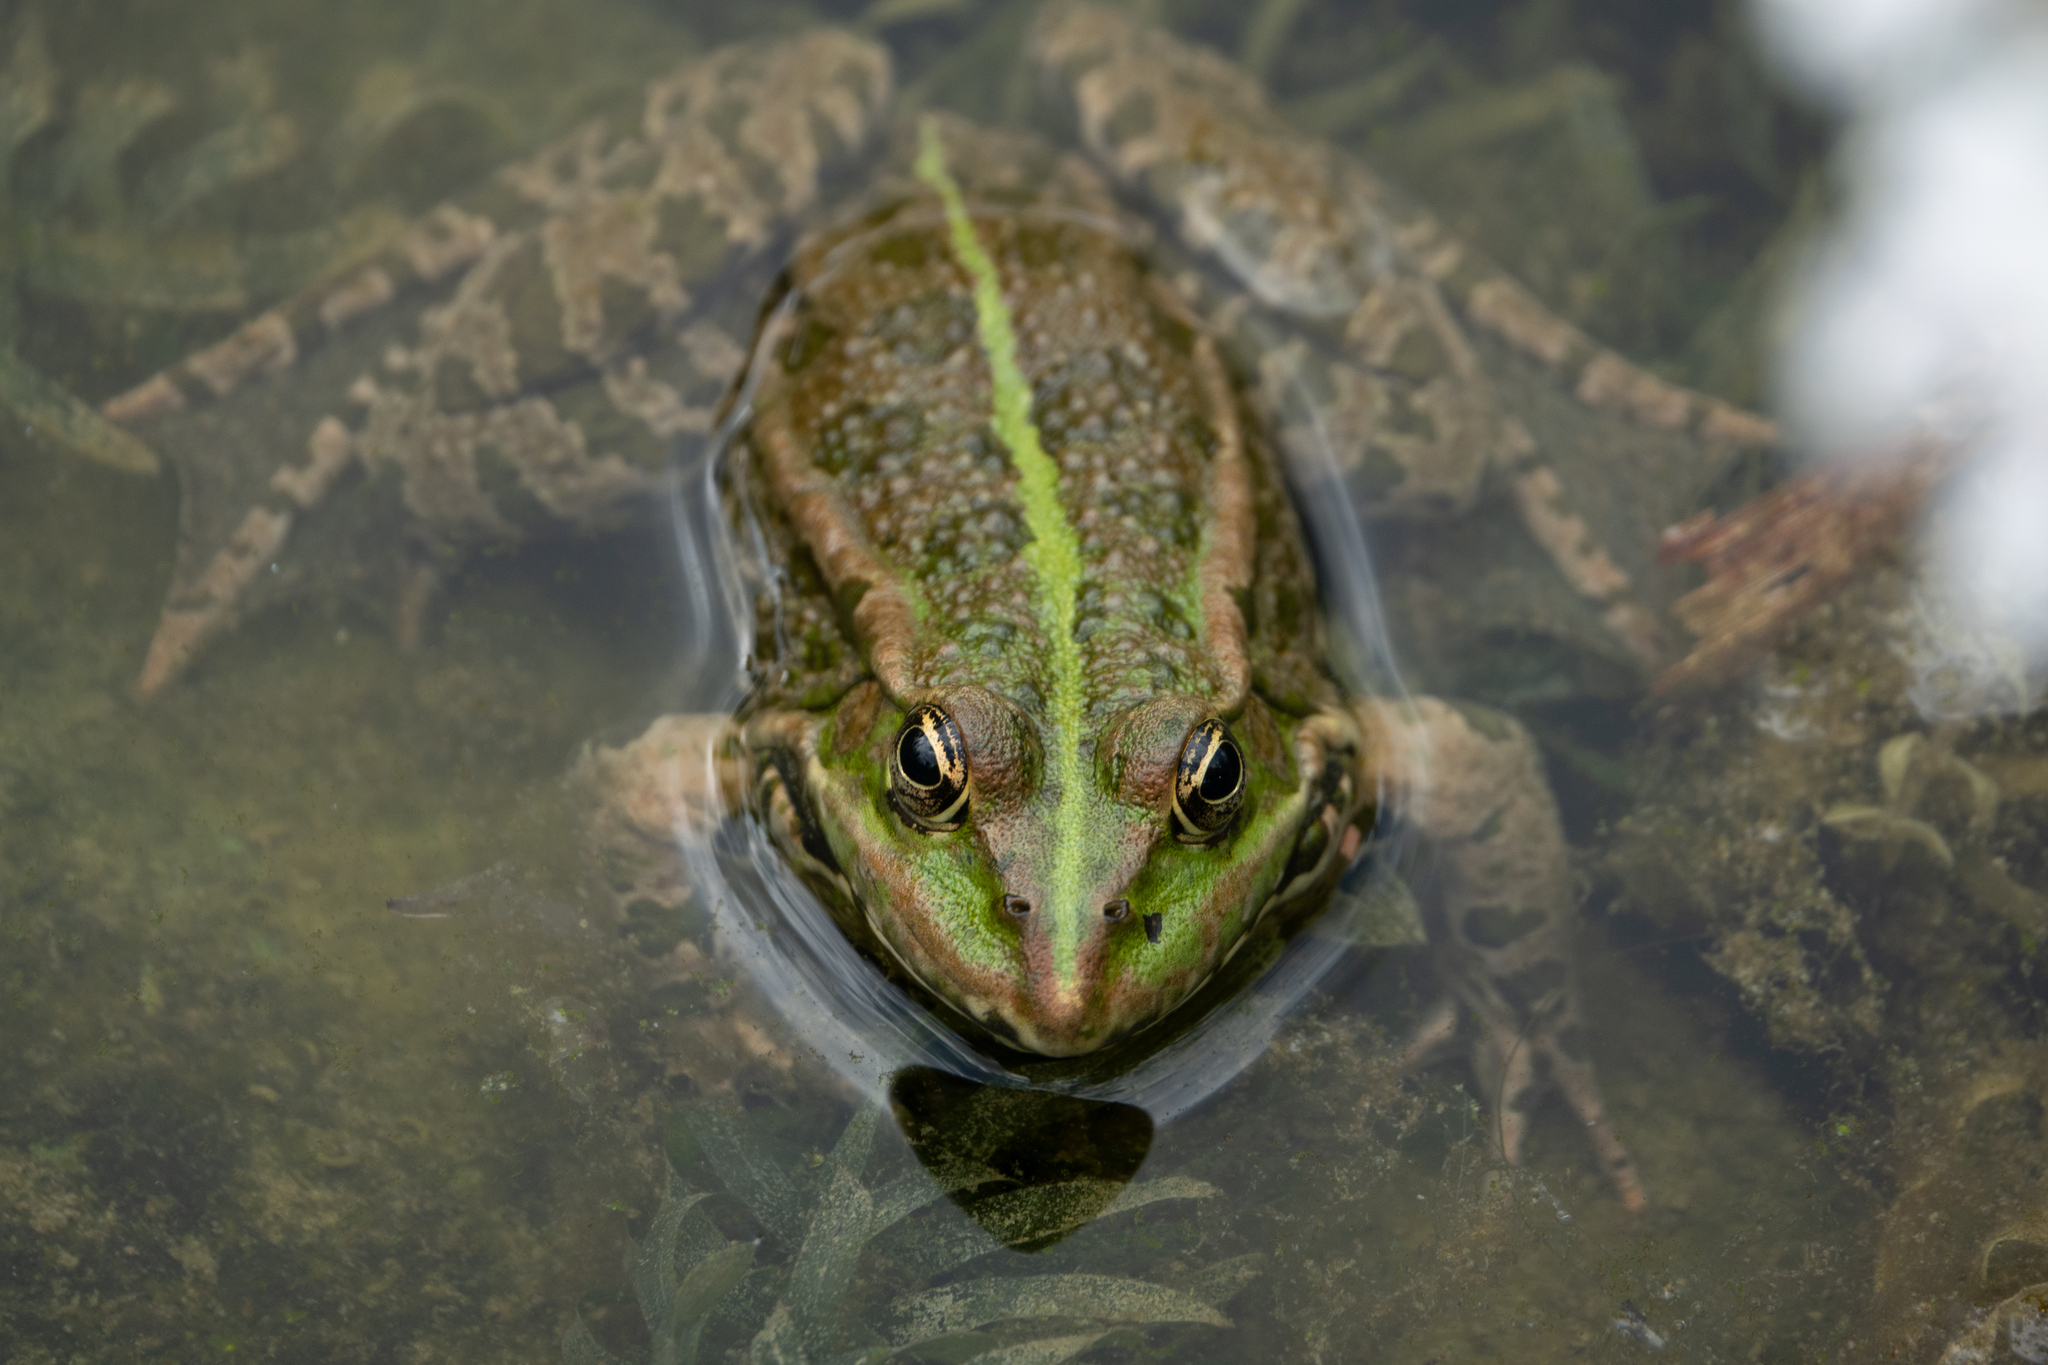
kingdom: Animalia
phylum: Chordata
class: Amphibia
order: Anura
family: Ranidae
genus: Pelophylax
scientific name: Pelophylax
